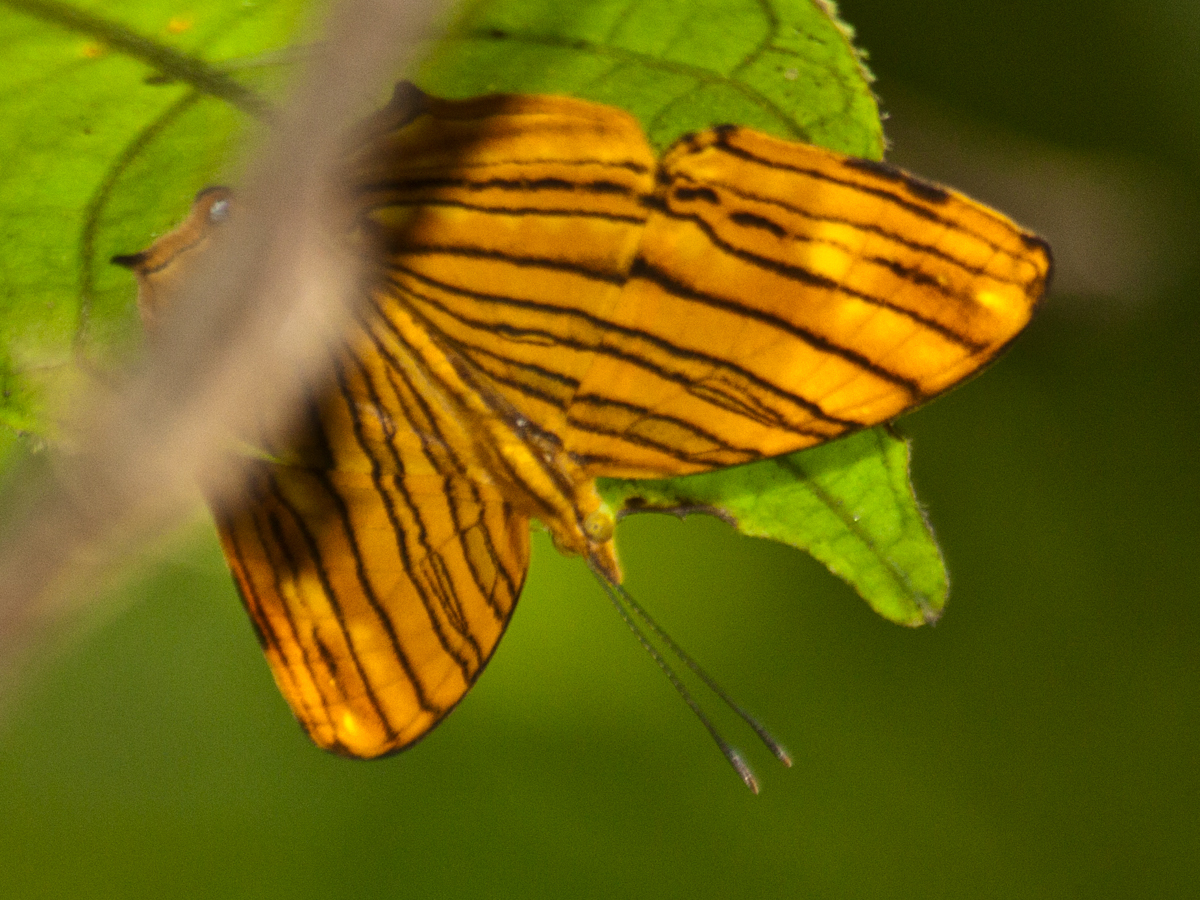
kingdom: Animalia
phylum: Arthropoda
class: Insecta
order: Lepidoptera
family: Nymphalidae
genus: Chersonesia
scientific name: Chersonesia risa
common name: Common maplet
